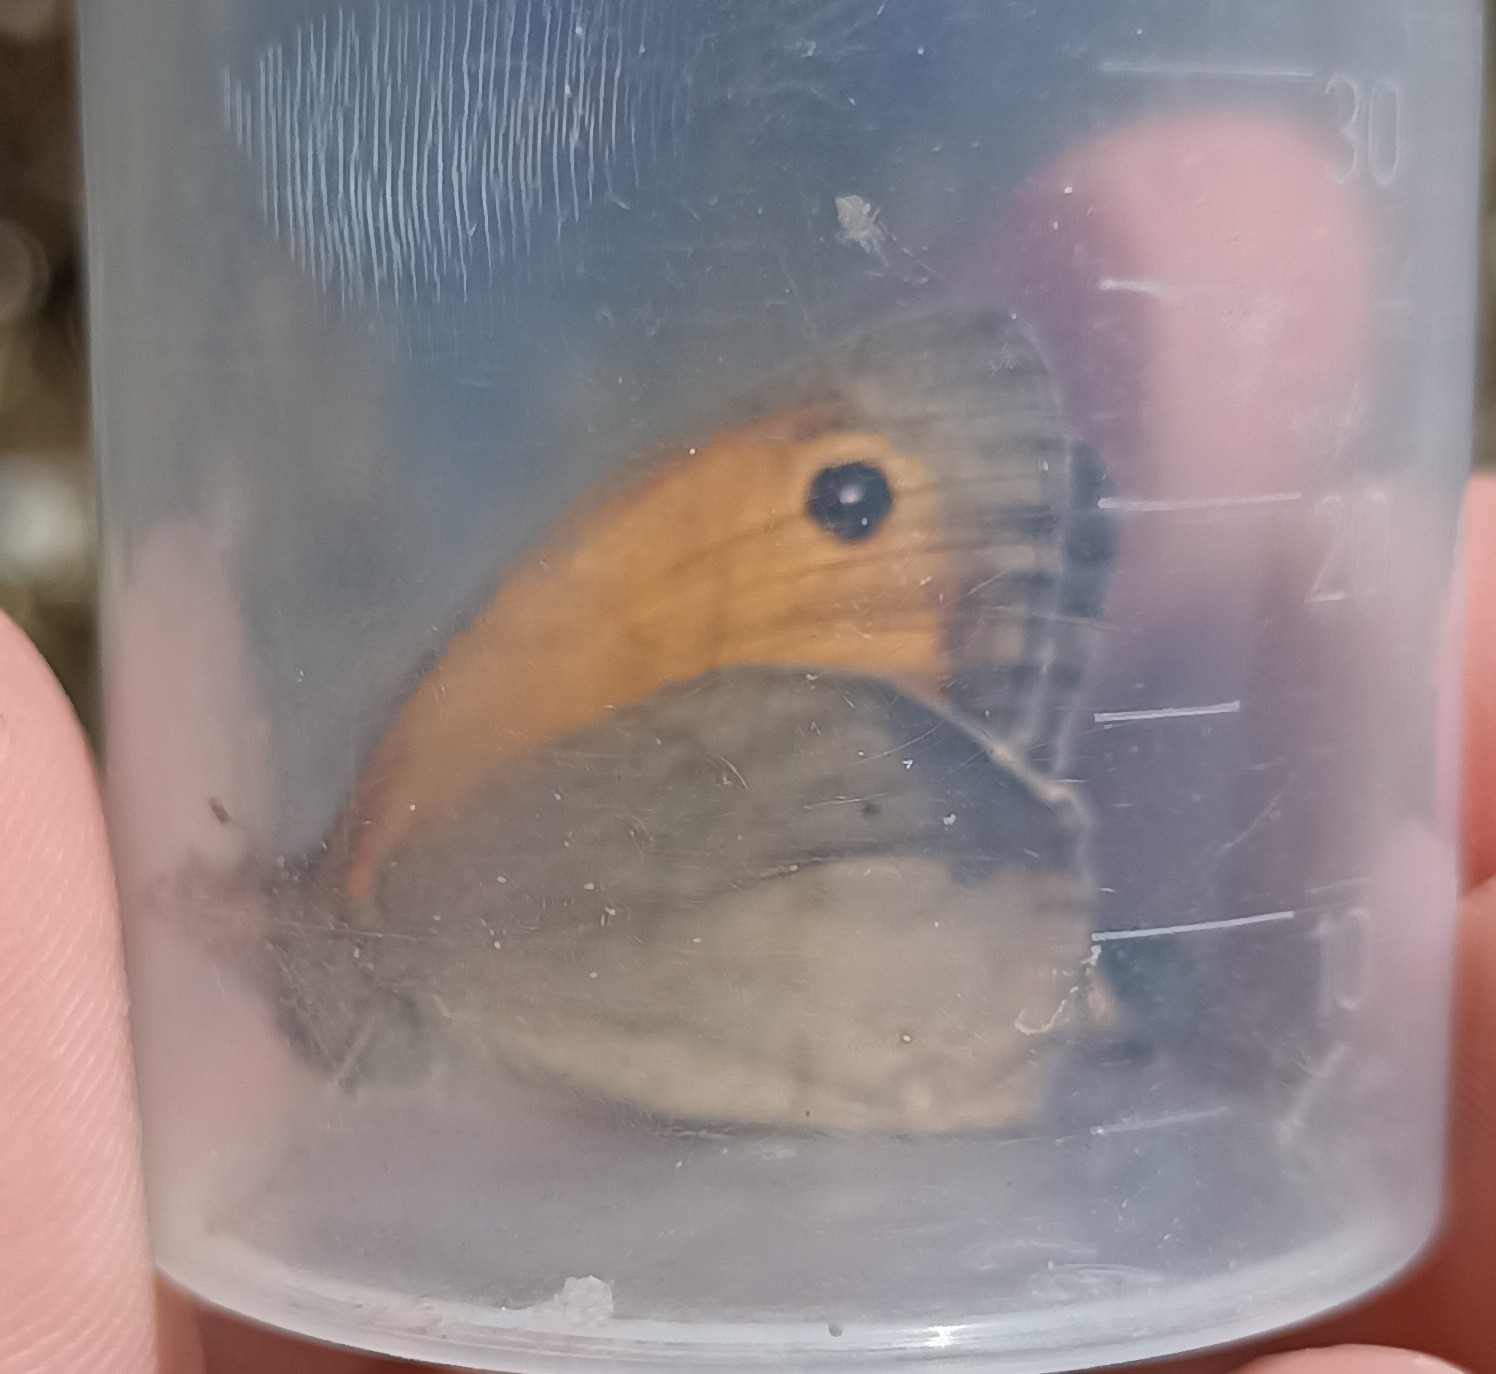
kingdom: Animalia
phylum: Arthropoda
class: Insecta
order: Lepidoptera
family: Nymphalidae
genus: Maniola
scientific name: Maniola jurtina
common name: Meadow brown
